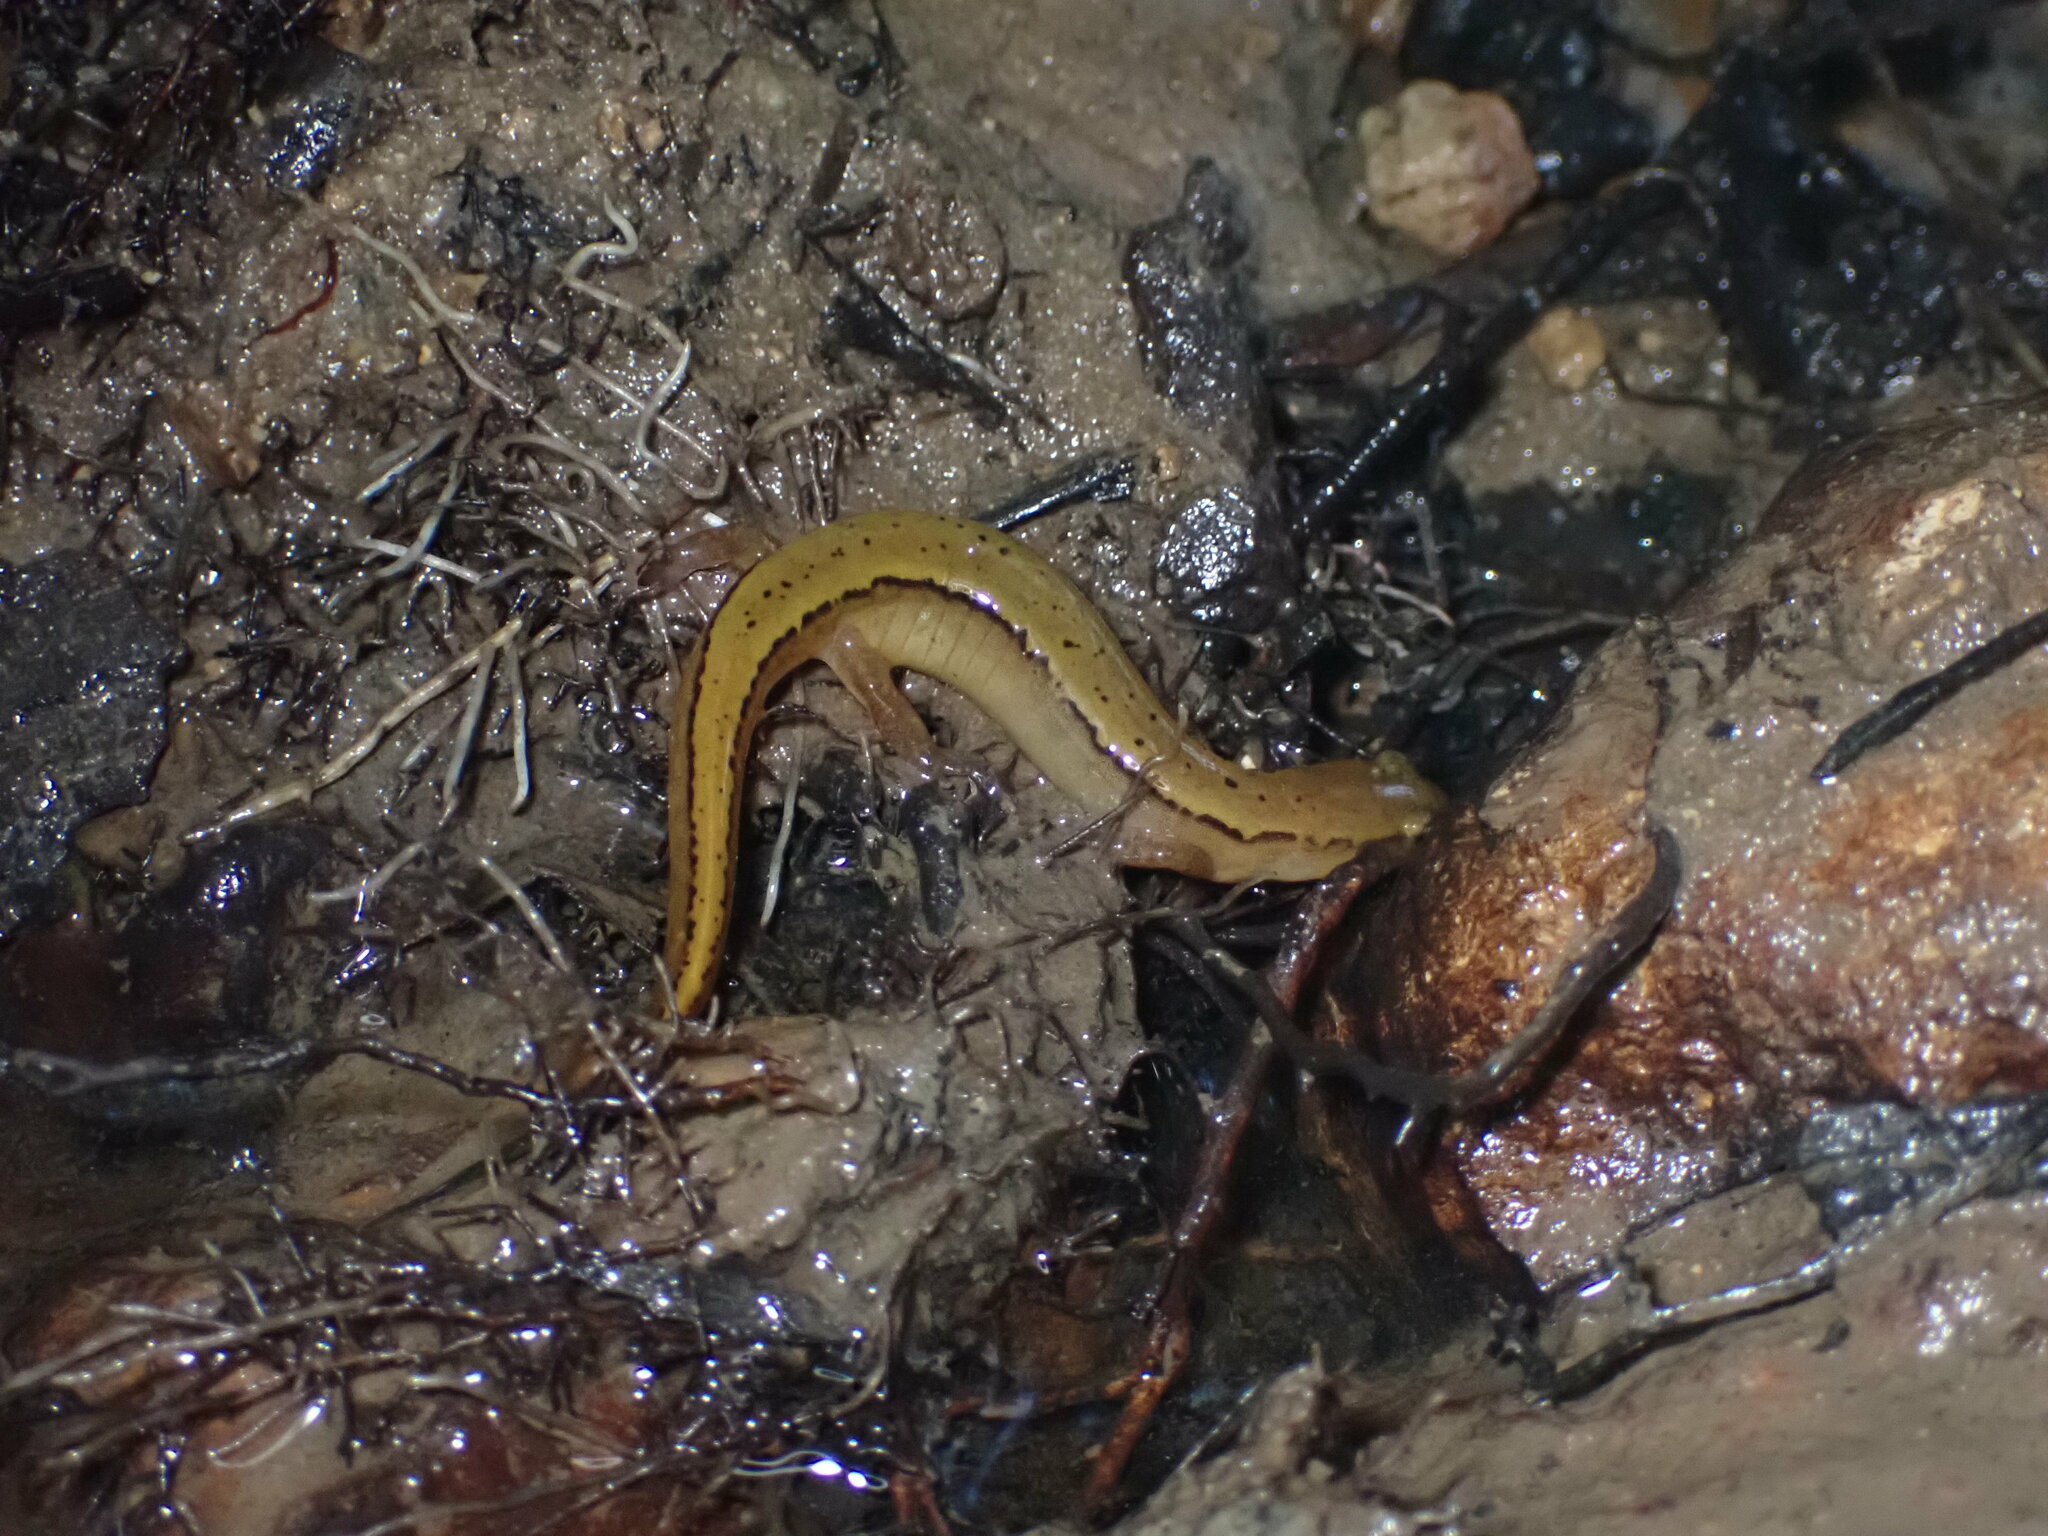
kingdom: Animalia
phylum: Chordata
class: Amphibia
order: Caudata
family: Plethodontidae
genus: Eurycea
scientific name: Eurycea aquatica
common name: Brown-backed salamander
